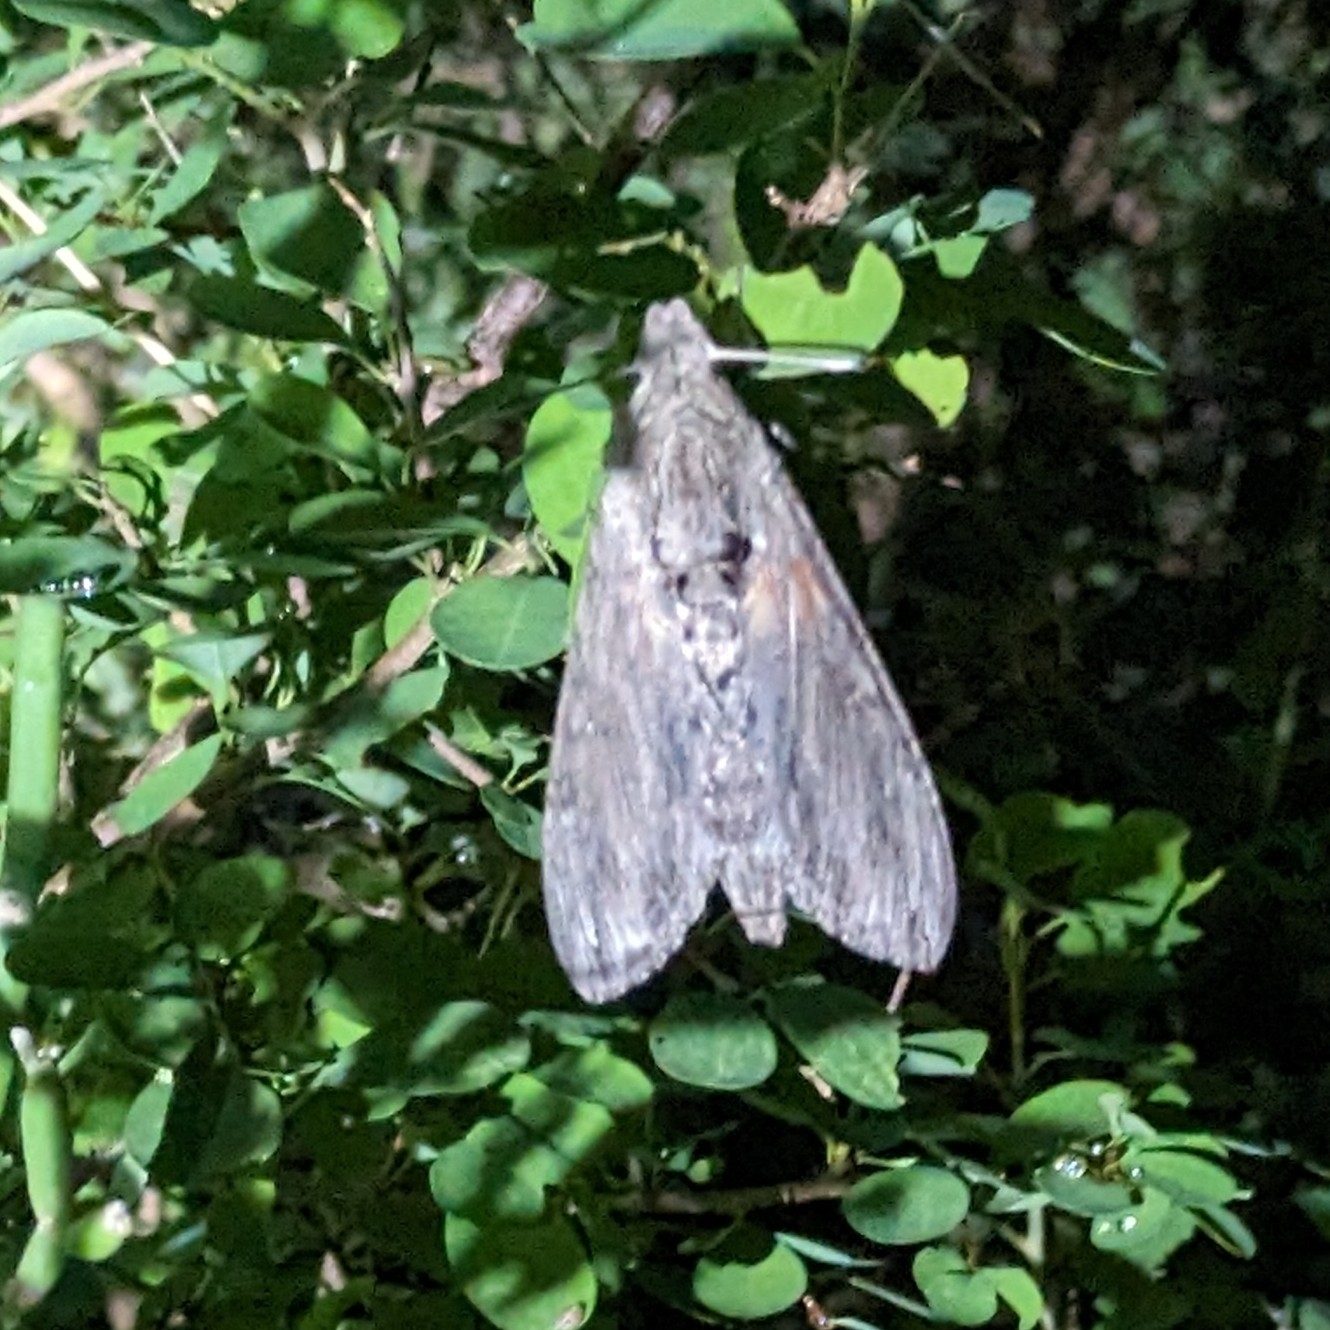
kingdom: Animalia
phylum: Arthropoda
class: Insecta
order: Lepidoptera
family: Sphingidae
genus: Agrius
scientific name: Agrius convolvuli
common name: Convolvulus hawkmoth
